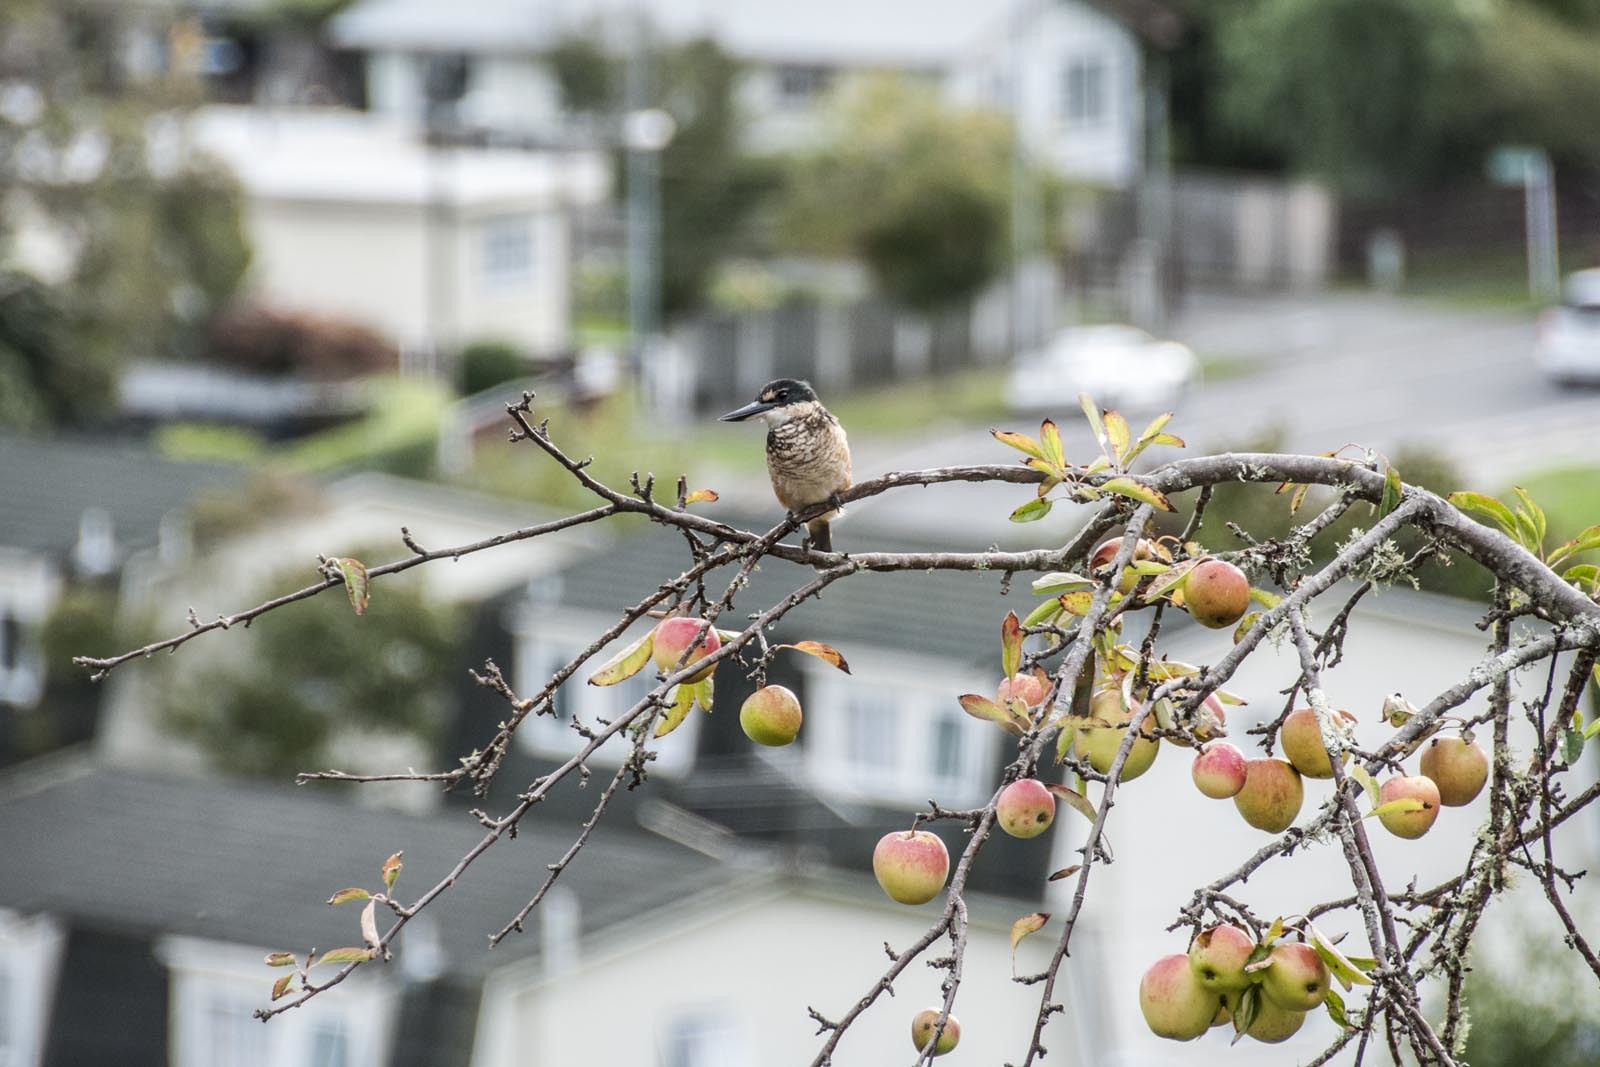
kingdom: Animalia
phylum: Chordata
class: Aves
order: Coraciiformes
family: Alcedinidae
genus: Todiramphus
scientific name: Todiramphus sanctus
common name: Sacred kingfisher
